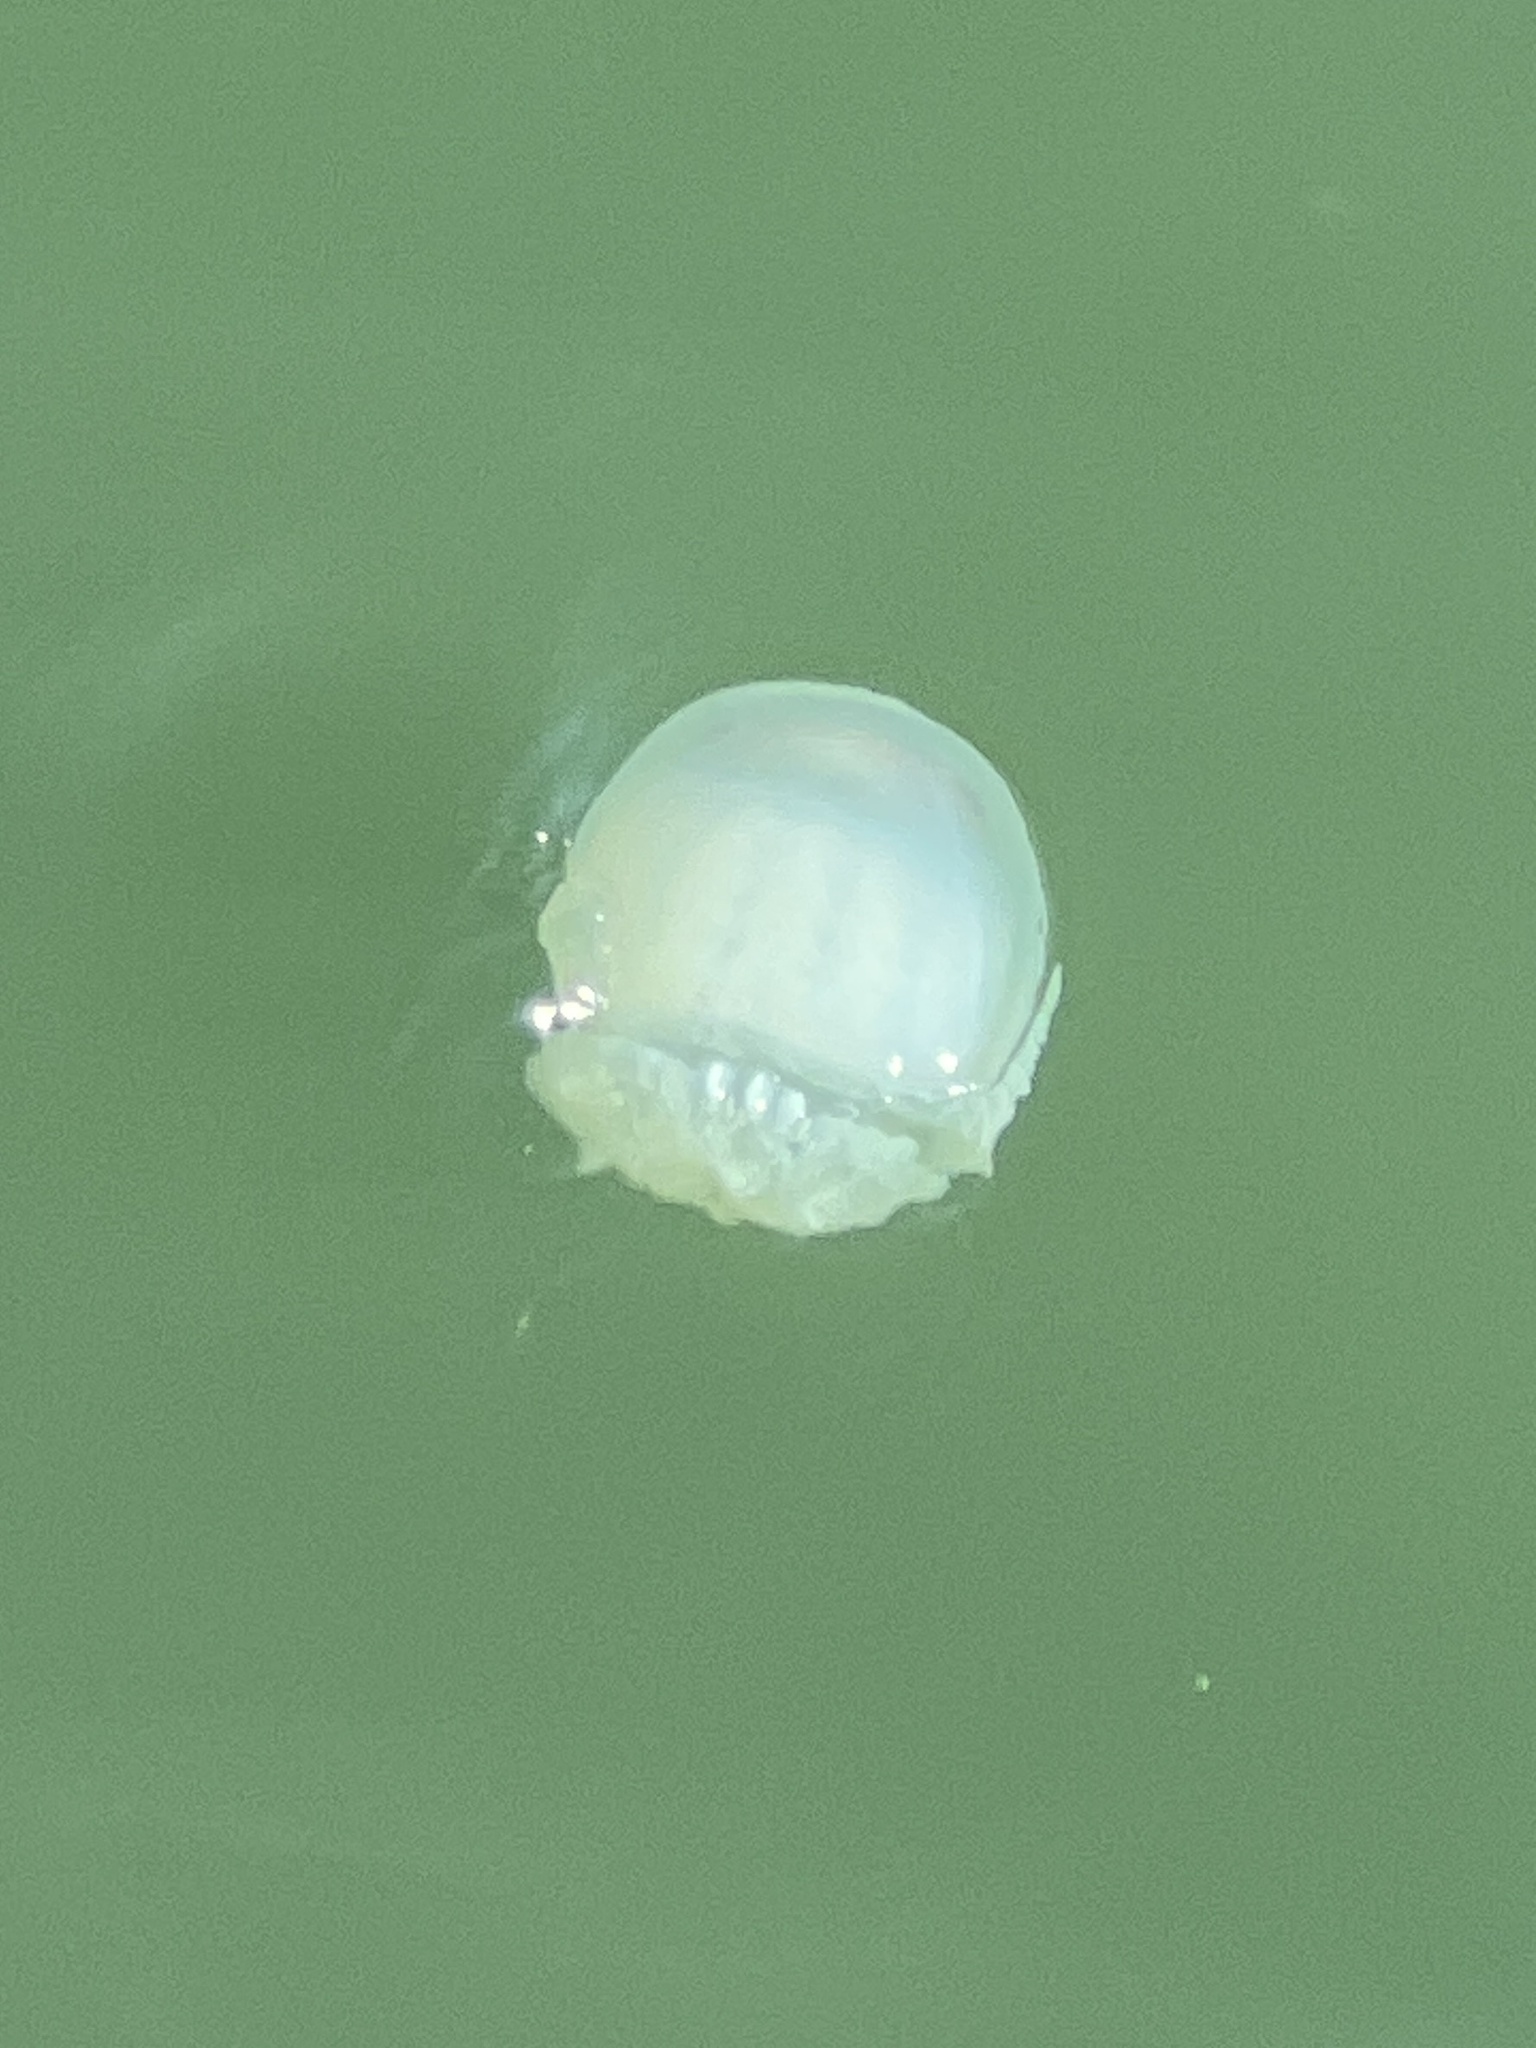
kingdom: Animalia
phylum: Cnidaria
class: Scyphozoa
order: Rhizostomeae
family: Stomolophidae
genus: Stomolophus
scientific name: Stomolophus meleagris
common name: Cabbagehead
